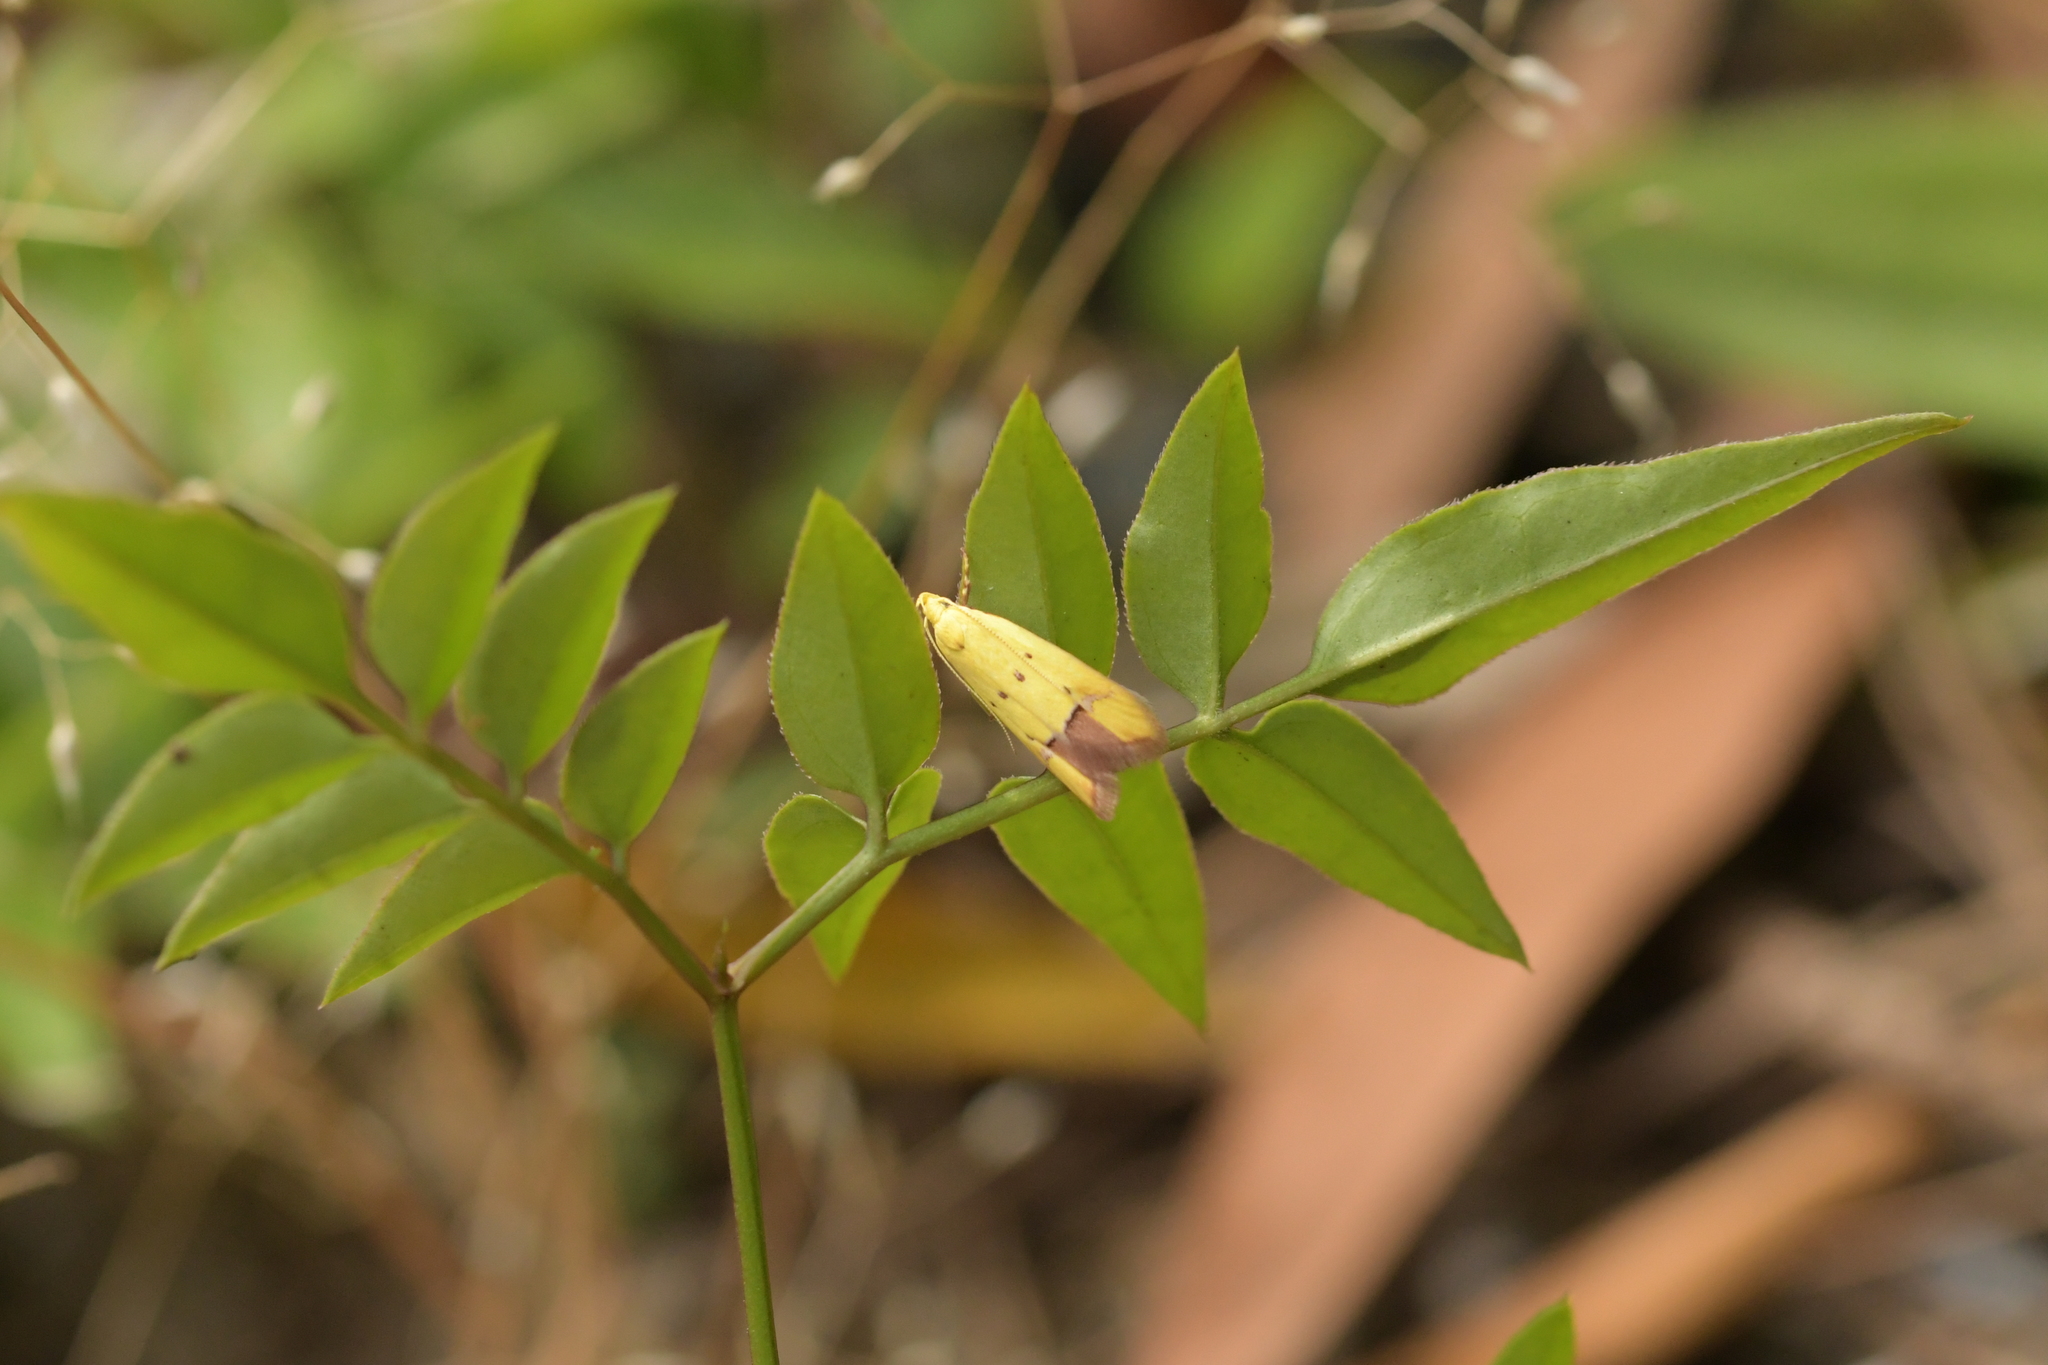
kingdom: Animalia
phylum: Arthropoda
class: Insecta
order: Lepidoptera
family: Oecophoridae
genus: Gymnobathra
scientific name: Gymnobathra flavidella
